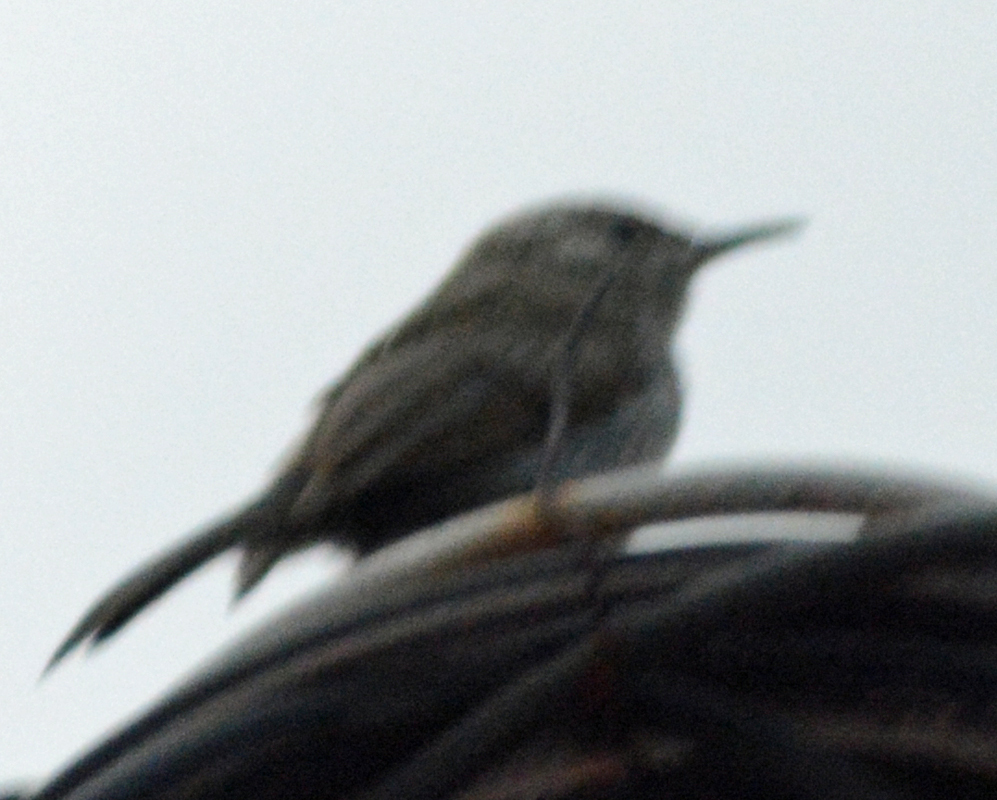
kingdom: Animalia
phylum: Chordata
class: Aves
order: Passeriformes
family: Troglodytidae
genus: Thryomanes
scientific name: Thryomanes bewickii
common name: Bewick's wren
